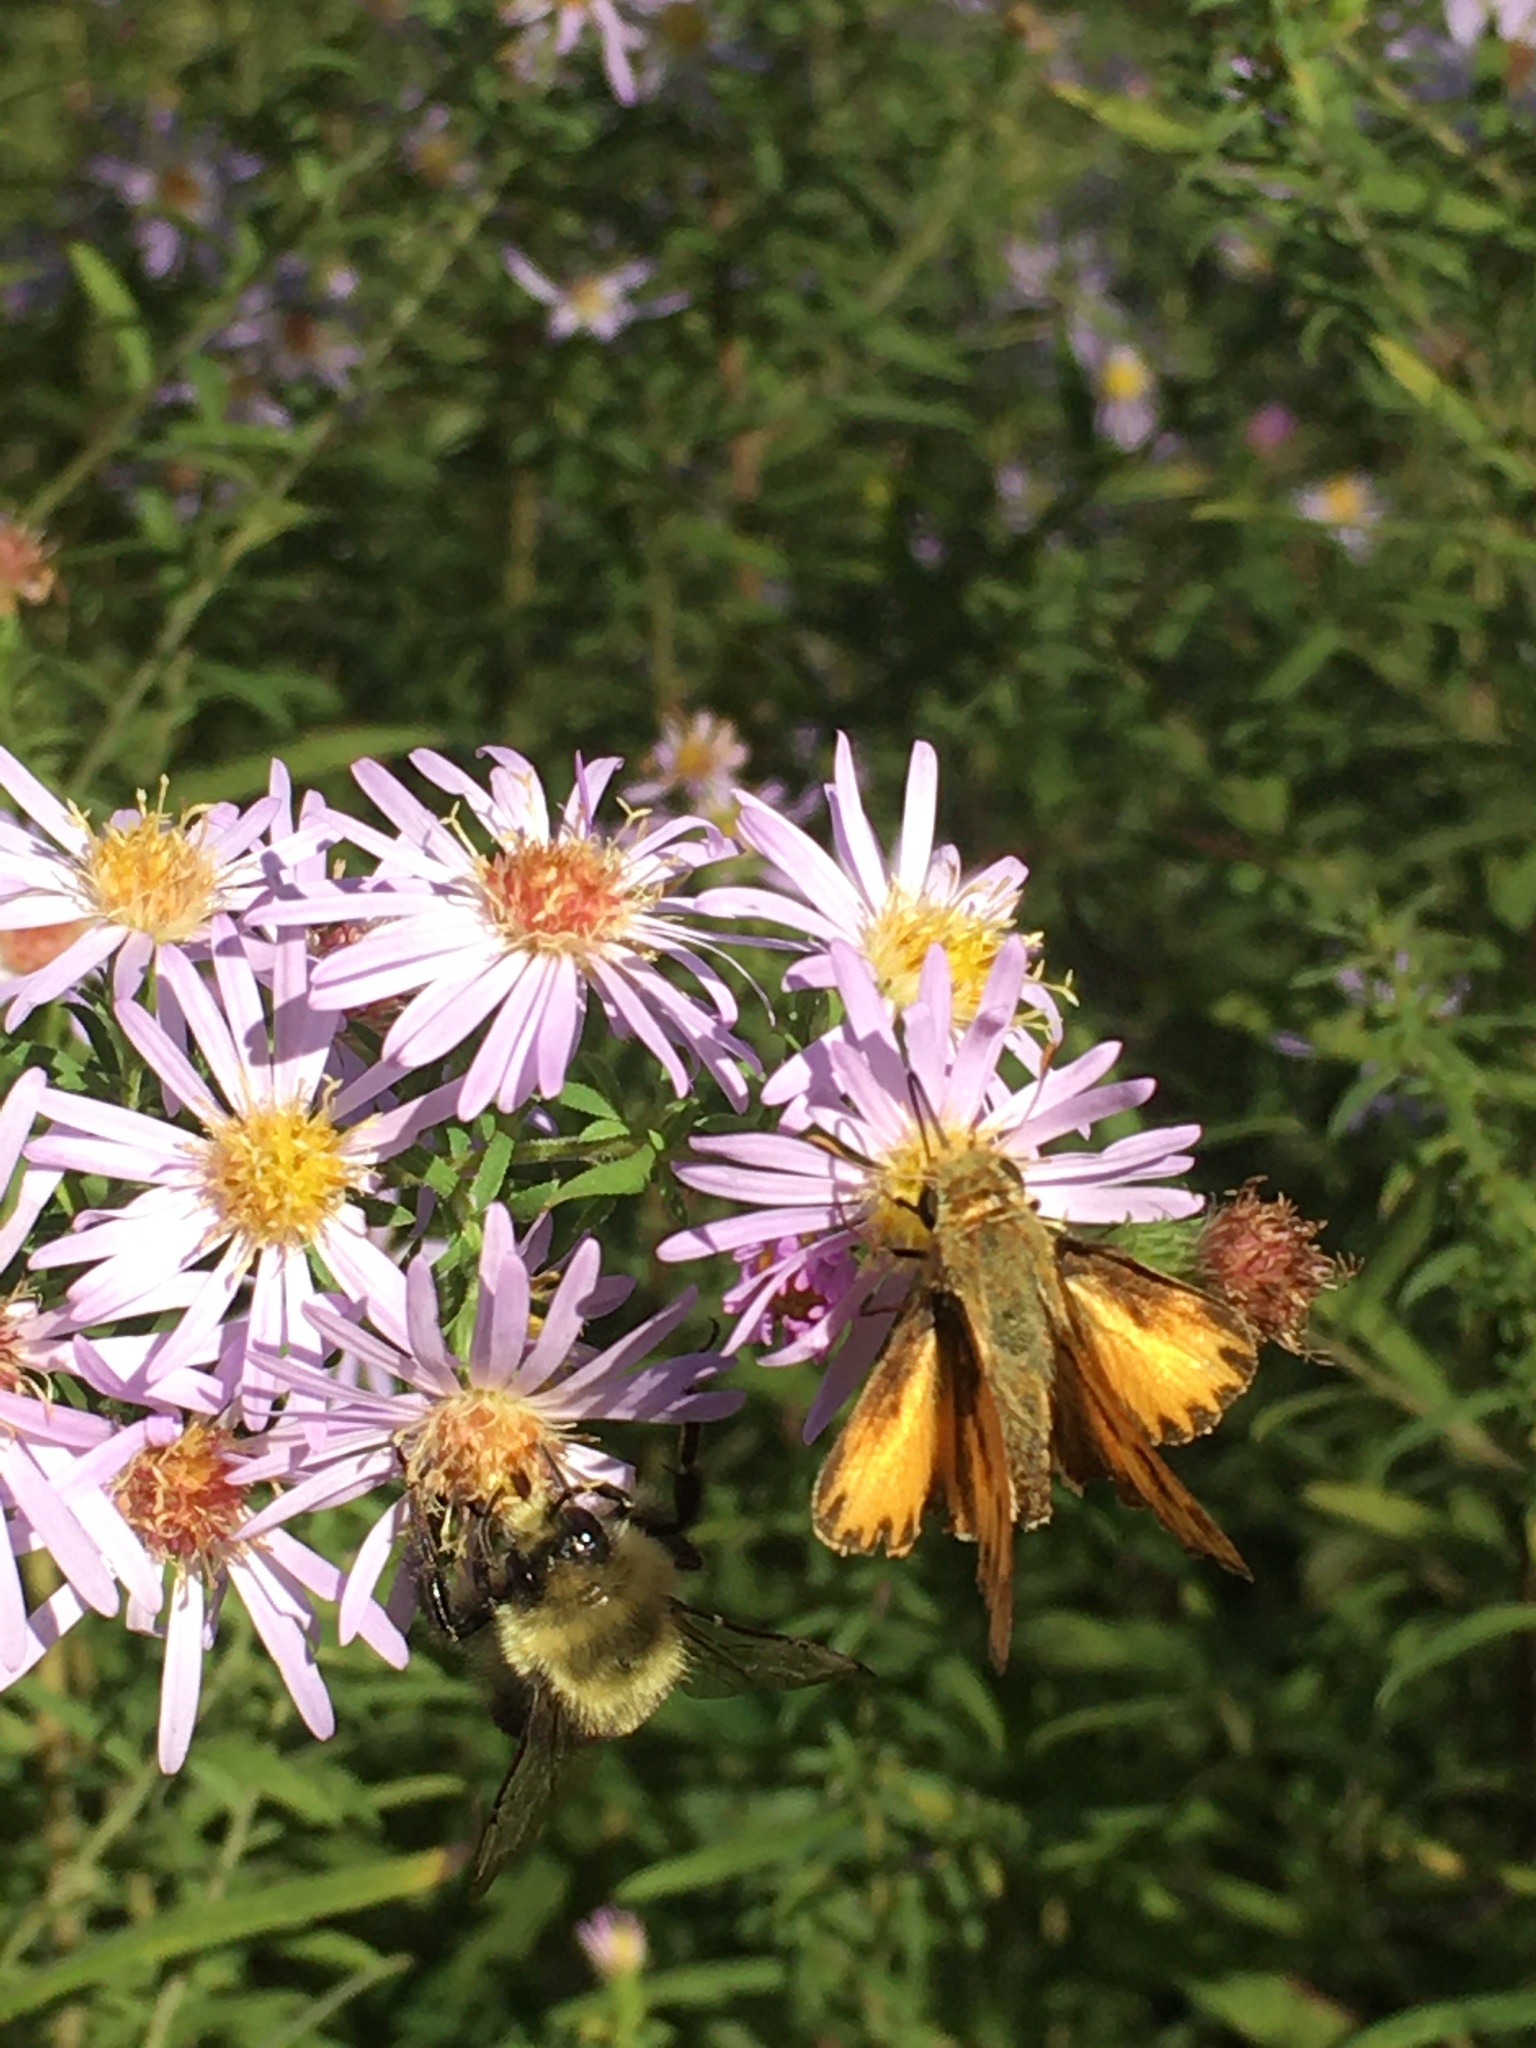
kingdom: Animalia
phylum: Arthropoda
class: Insecta
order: Lepidoptera
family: Hesperiidae
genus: Hylephila
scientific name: Hylephila phyleus
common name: Fiery skipper
